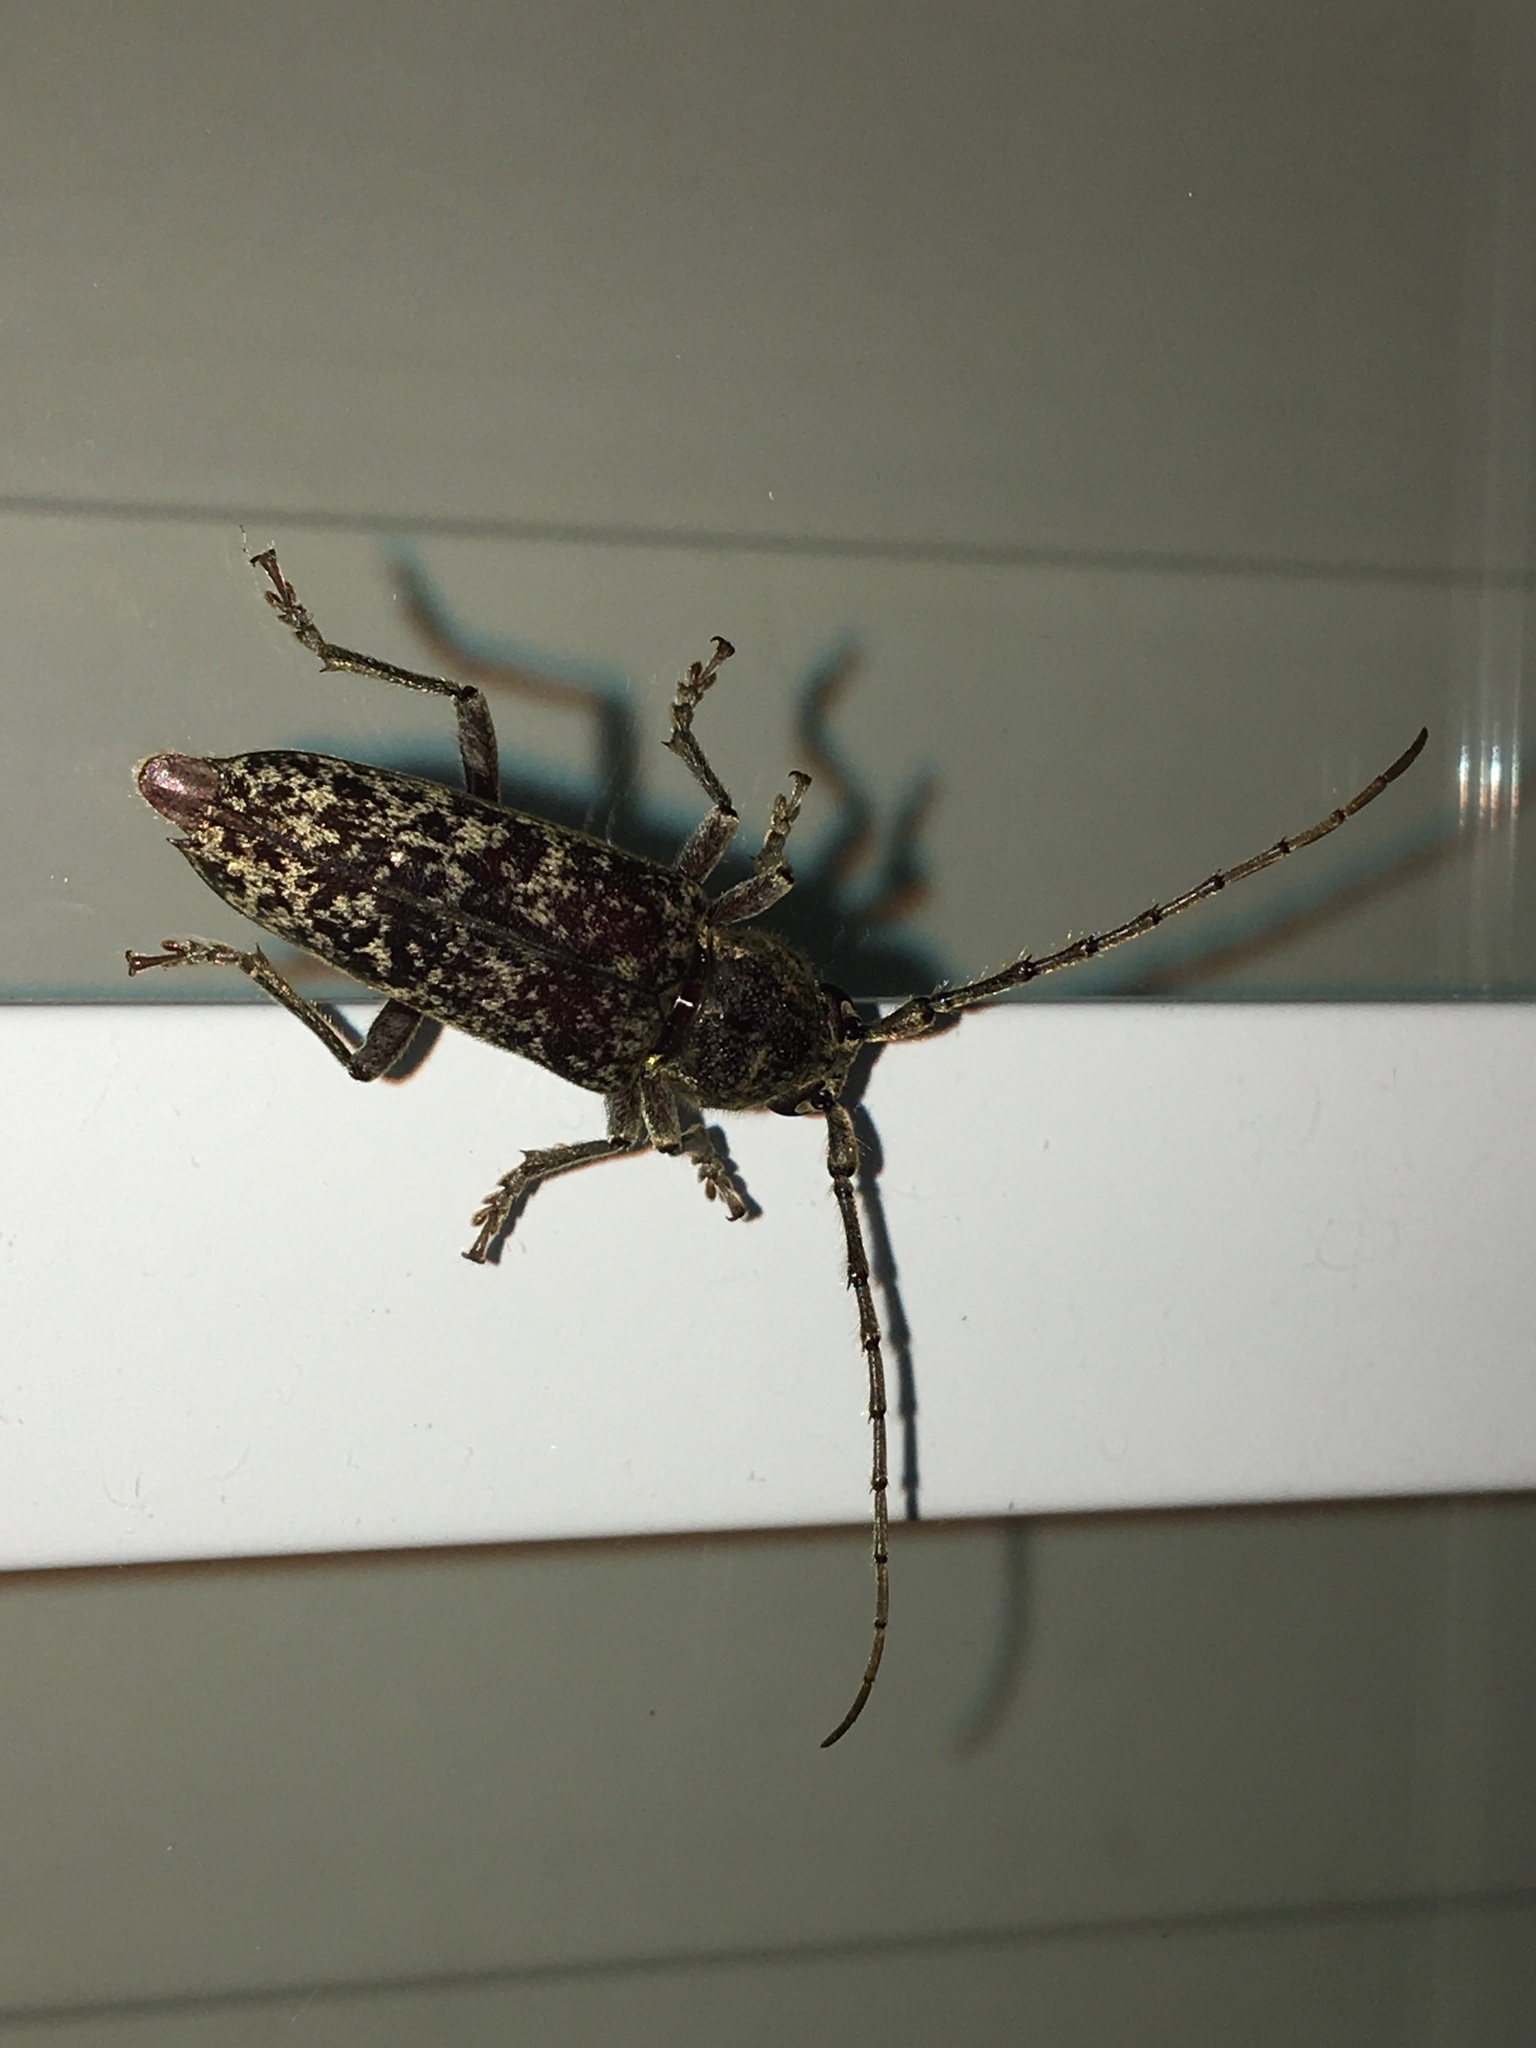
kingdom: Animalia
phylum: Arthropoda
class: Insecta
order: Coleoptera
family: Cerambycidae
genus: Enaphalodes
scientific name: Enaphalodes atomarius
